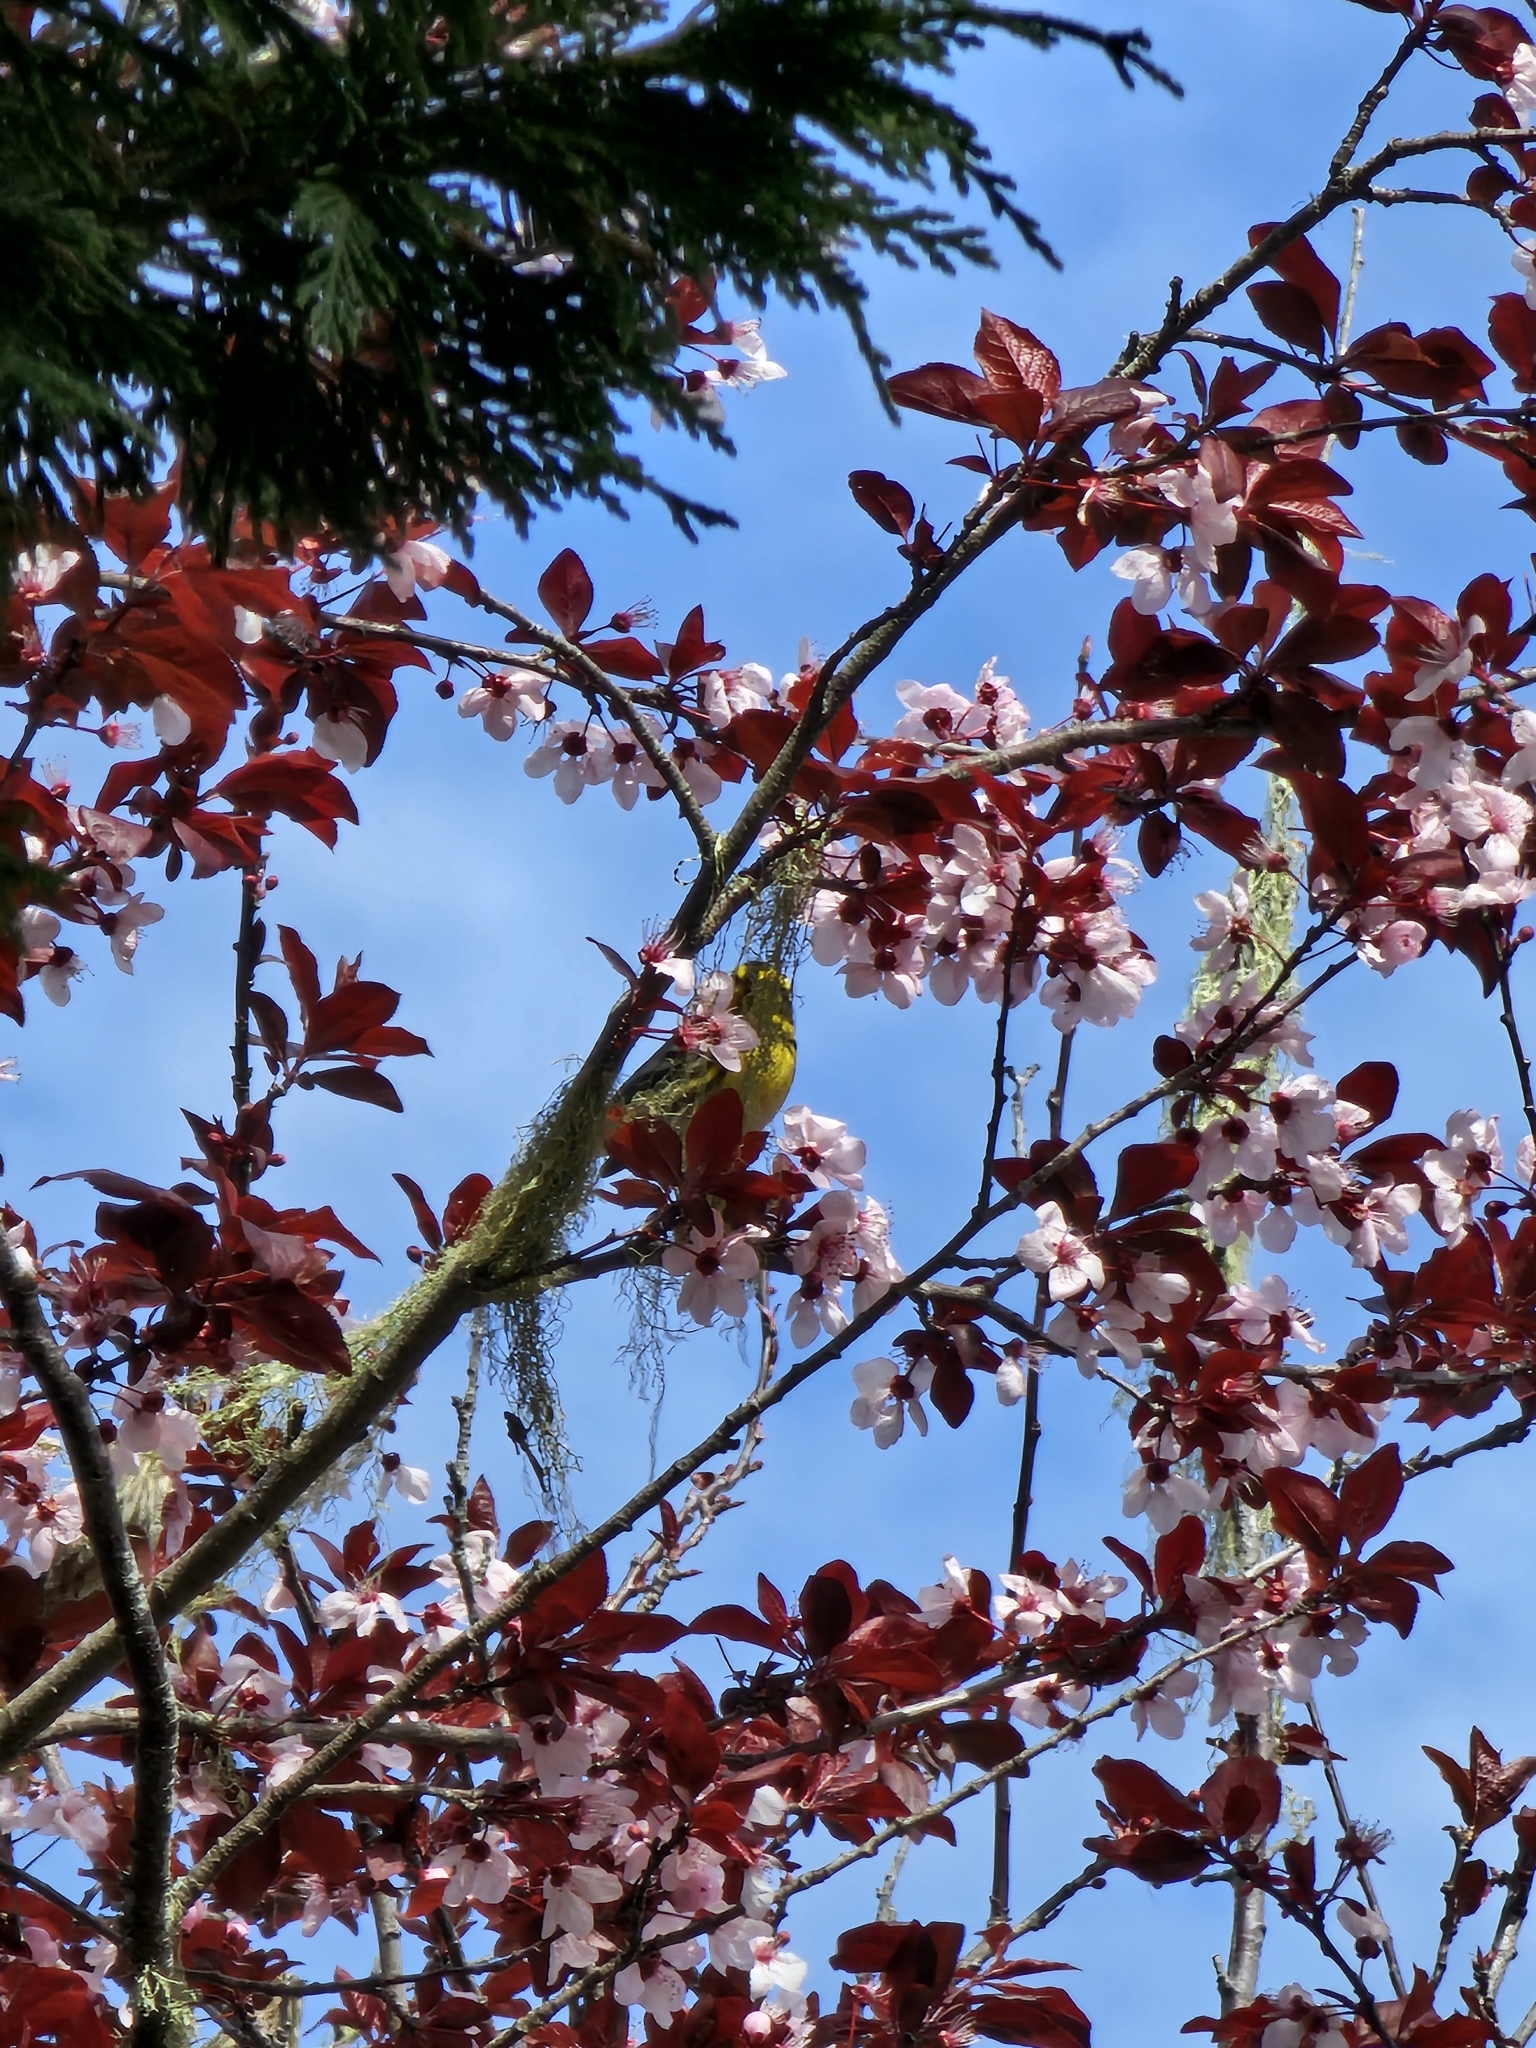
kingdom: Animalia
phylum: Chordata
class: Aves
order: Passeriformes
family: Parulidae
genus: Setophaga
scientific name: Setophaga townsendi
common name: Townsend's warbler
